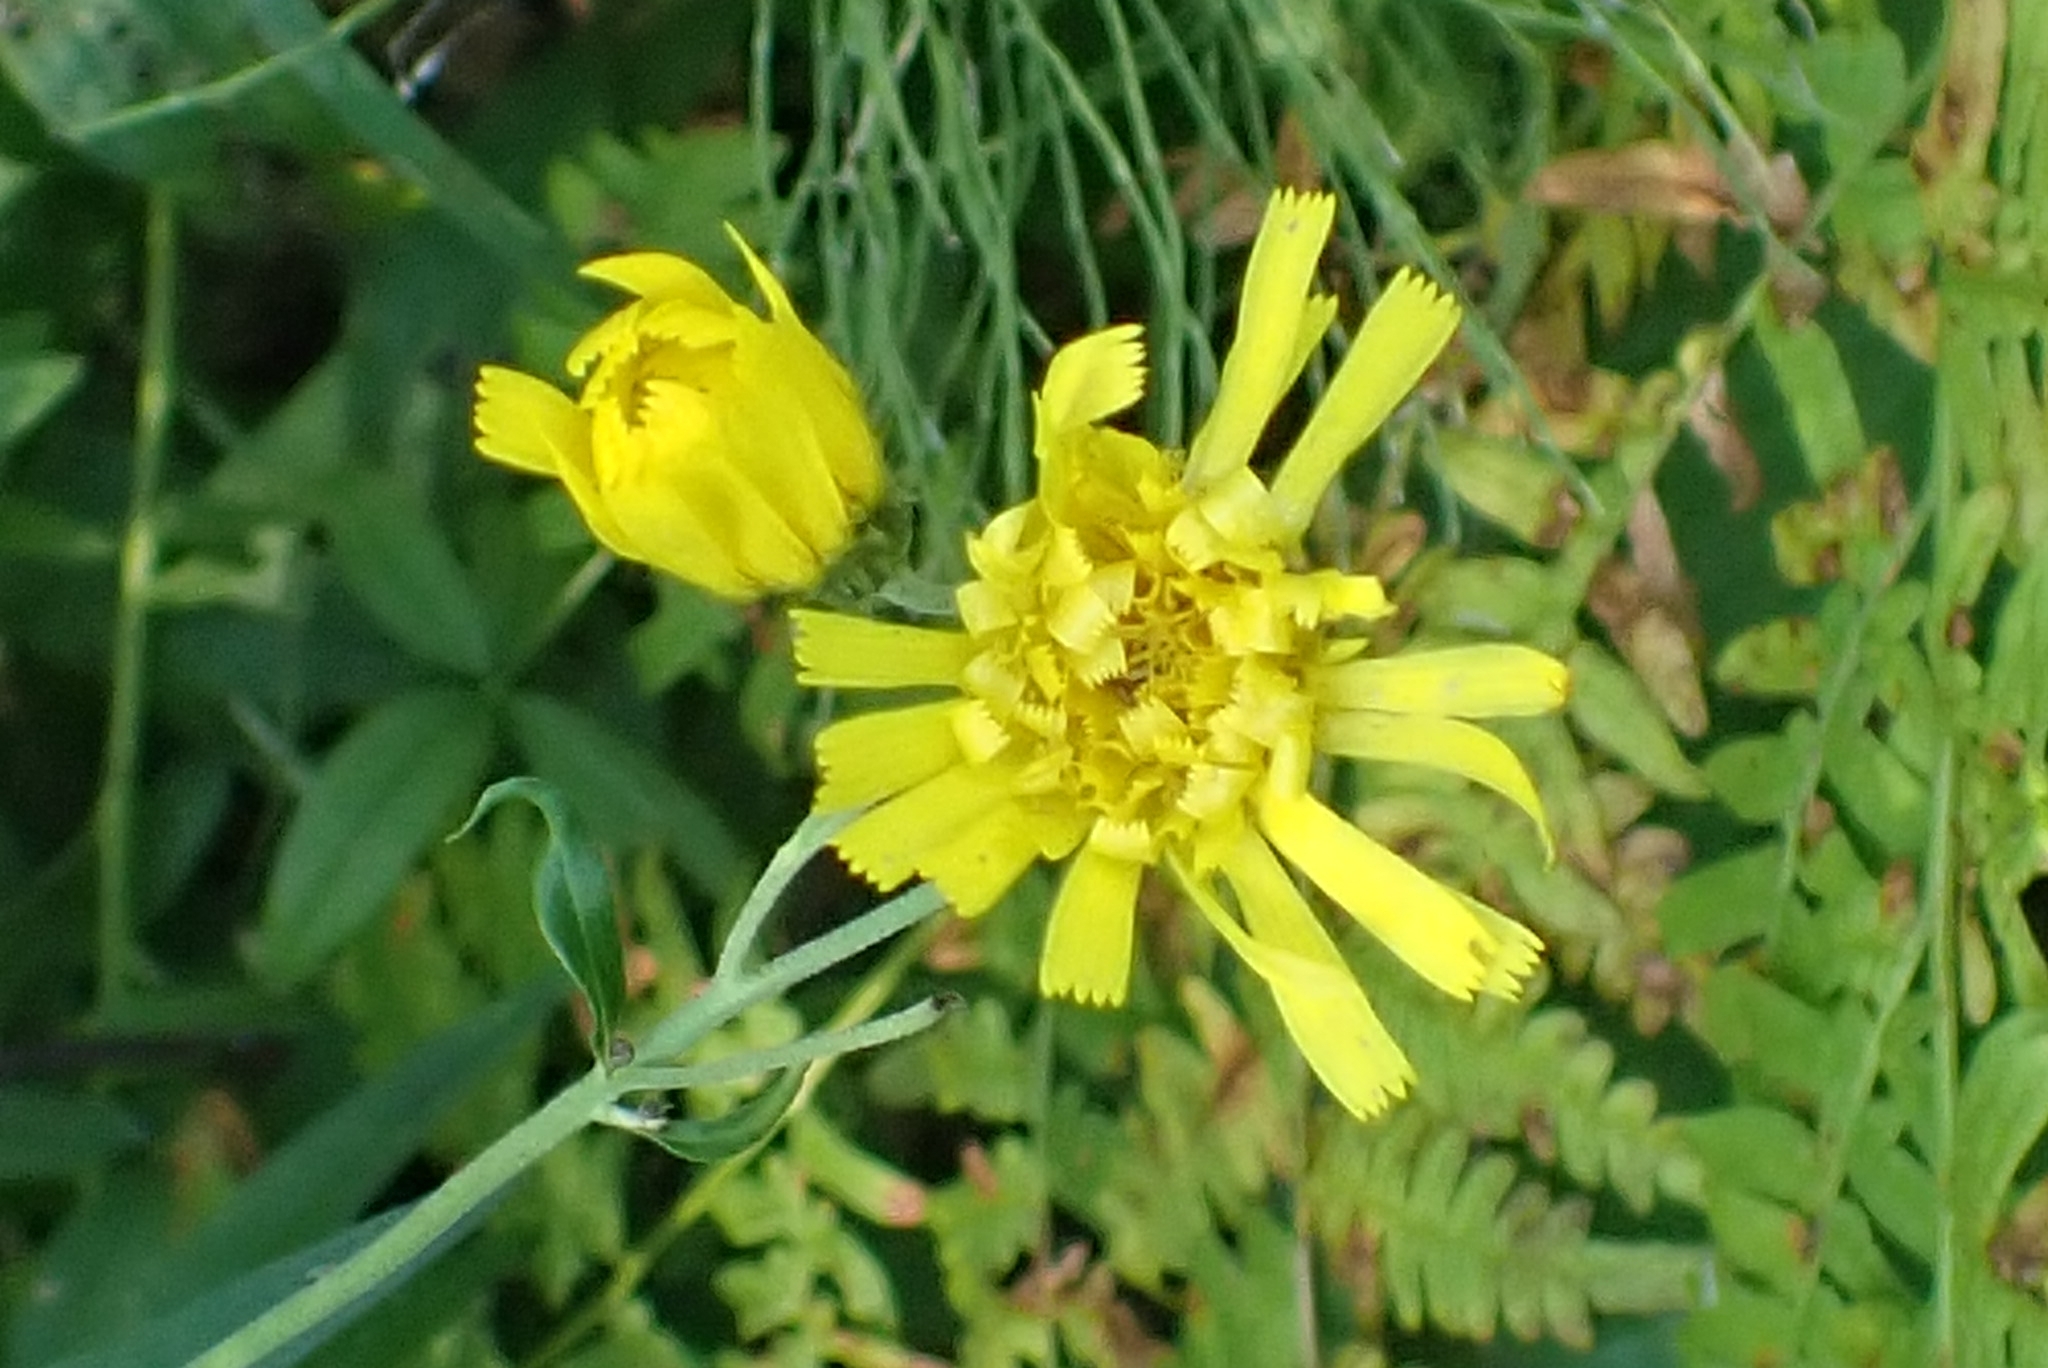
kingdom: Plantae
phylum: Tracheophyta
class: Magnoliopsida
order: Asterales
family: Asteraceae
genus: Hieracium
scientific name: Hieracium umbellatum
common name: Northern hawkweed
